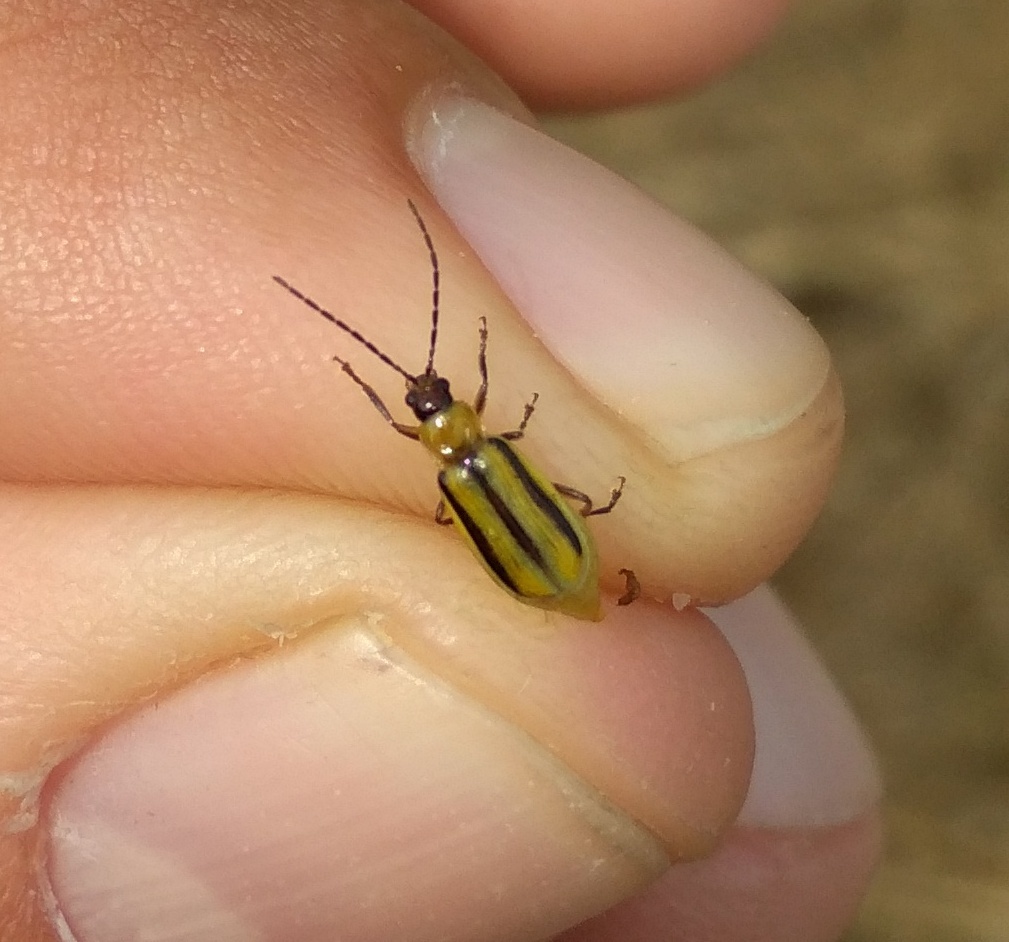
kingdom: Animalia
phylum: Arthropoda
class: Insecta
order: Coleoptera
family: Chrysomelidae
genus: Diabrotica
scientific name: Diabrotica virgifera
